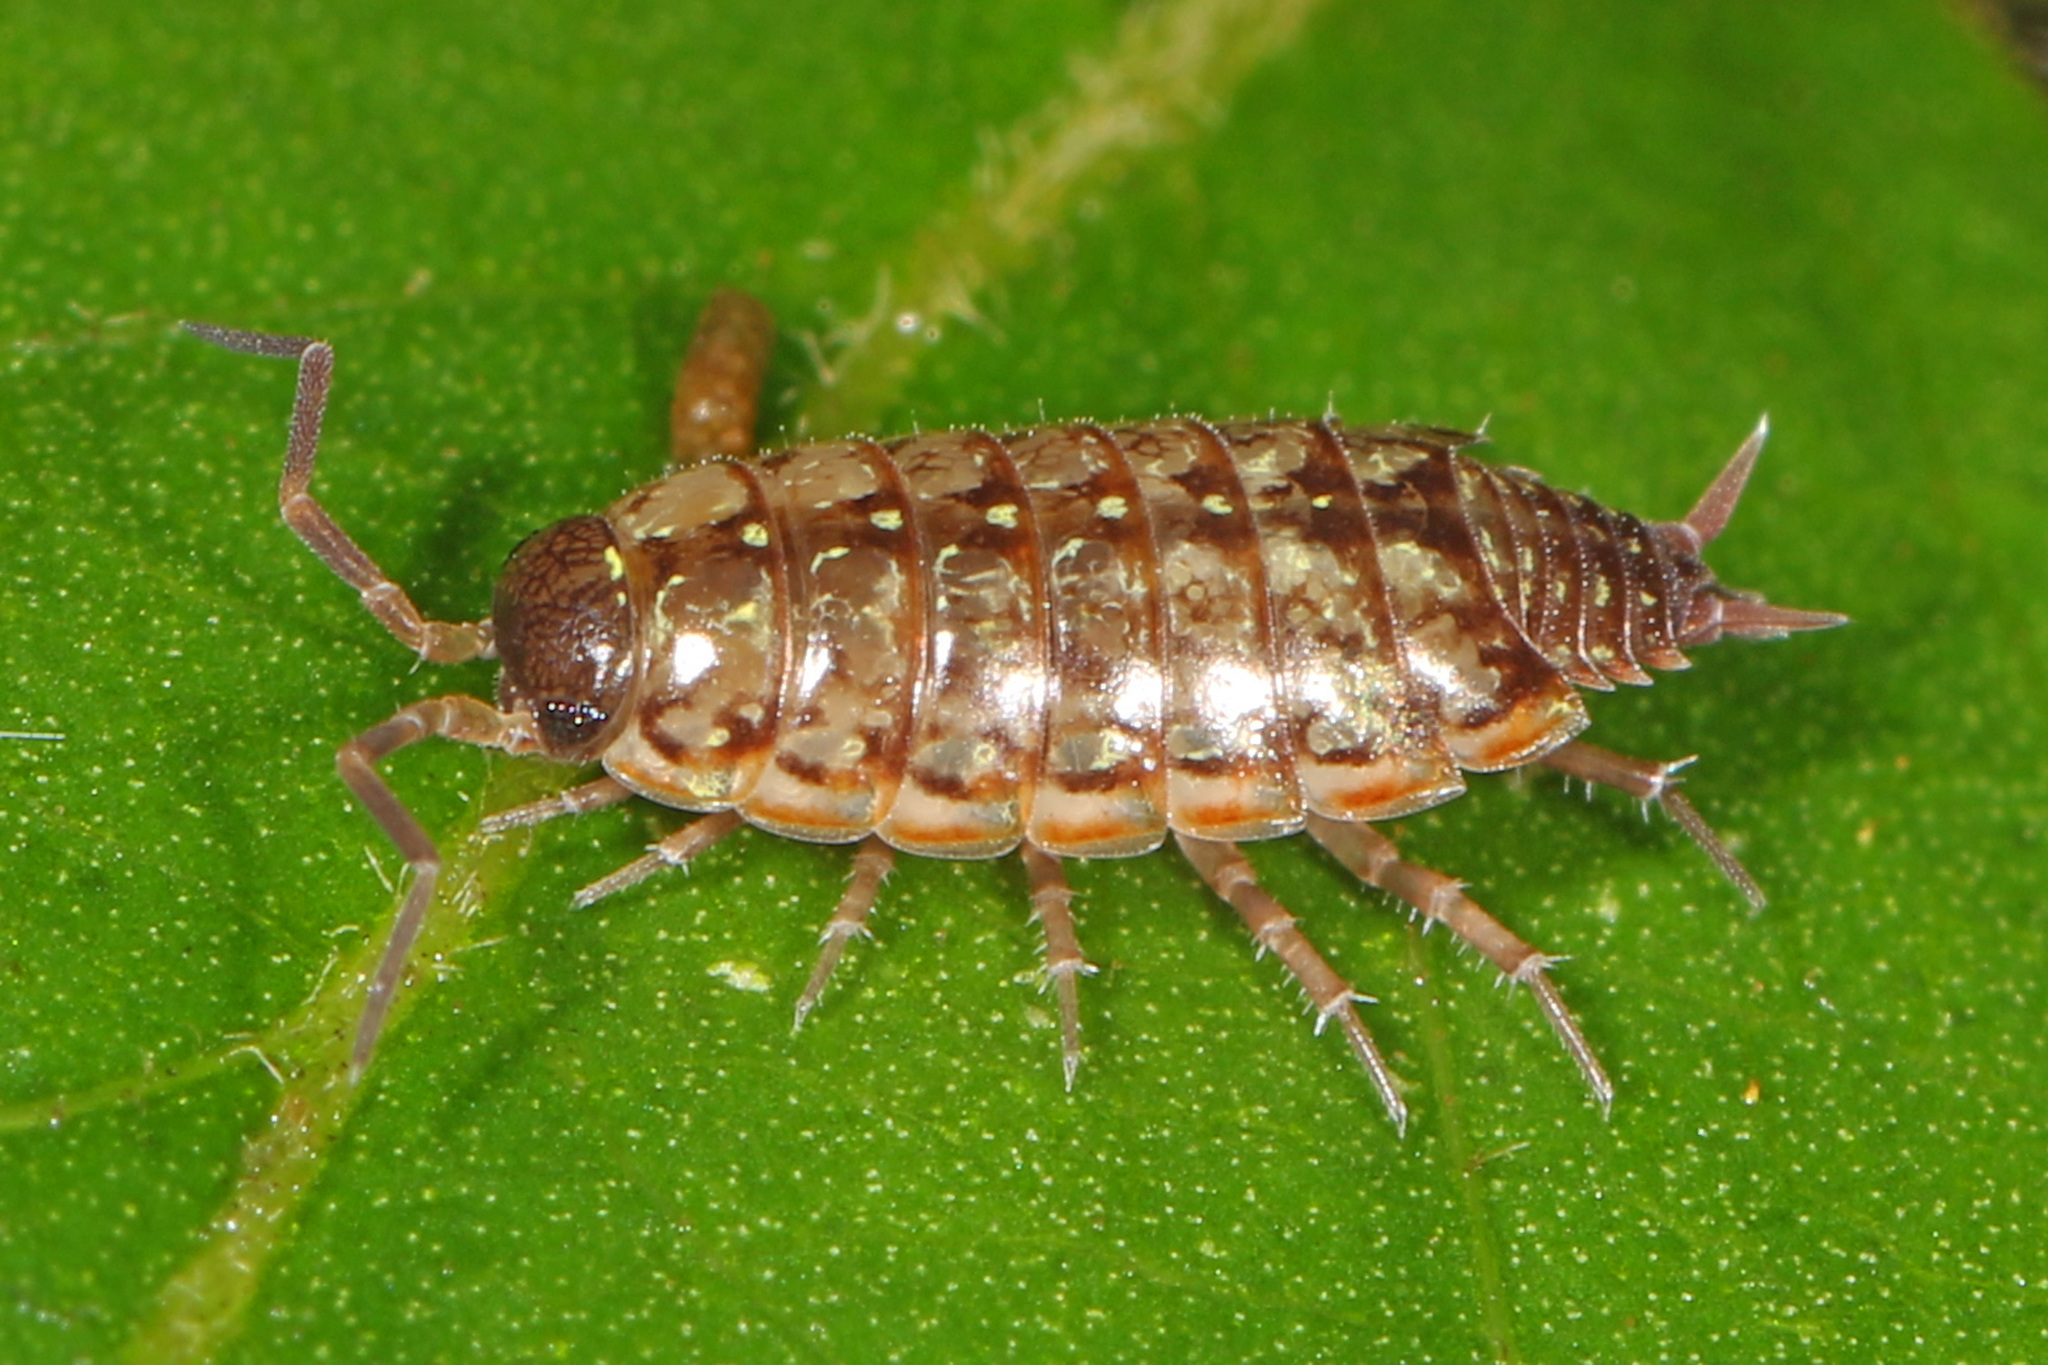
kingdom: Animalia
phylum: Arthropoda
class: Malacostraca
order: Isopoda
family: Philosciidae
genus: Philoscia
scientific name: Philoscia muscorum
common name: Common striped woodlouse
